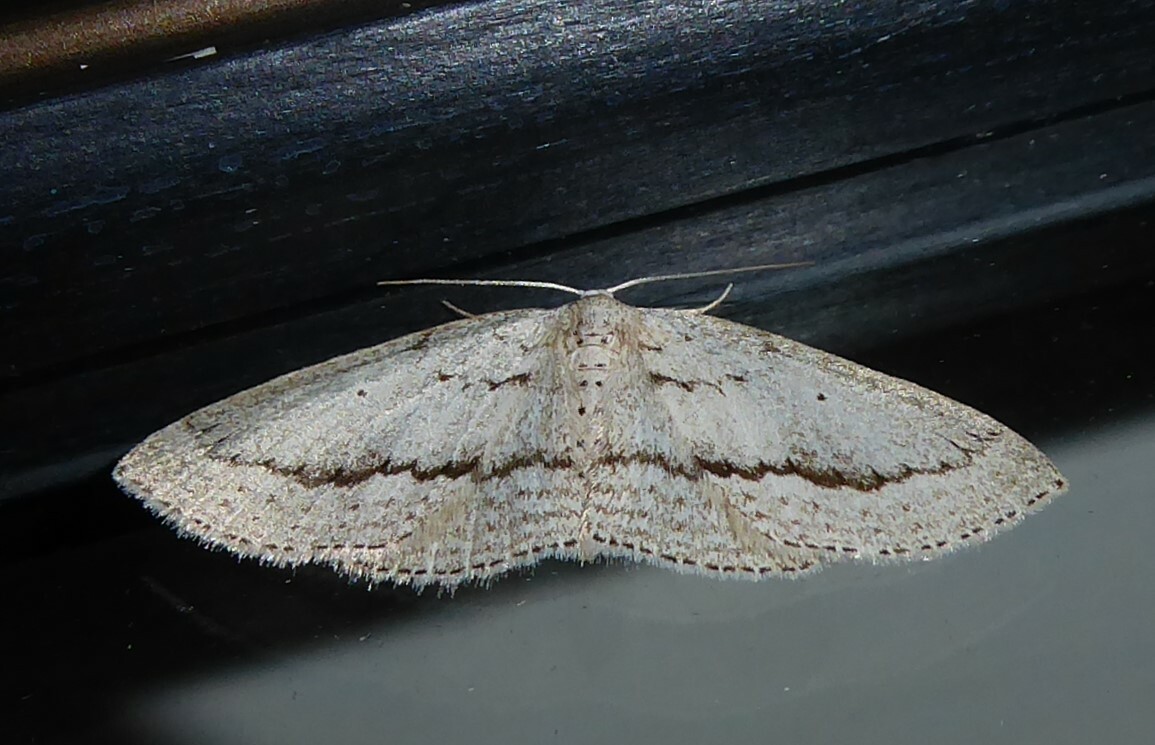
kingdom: Animalia
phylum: Arthropoda
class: Insecta
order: Lepidoptera
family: Geometridae
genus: Poecilasthena
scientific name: Poecilasthena schistaria
